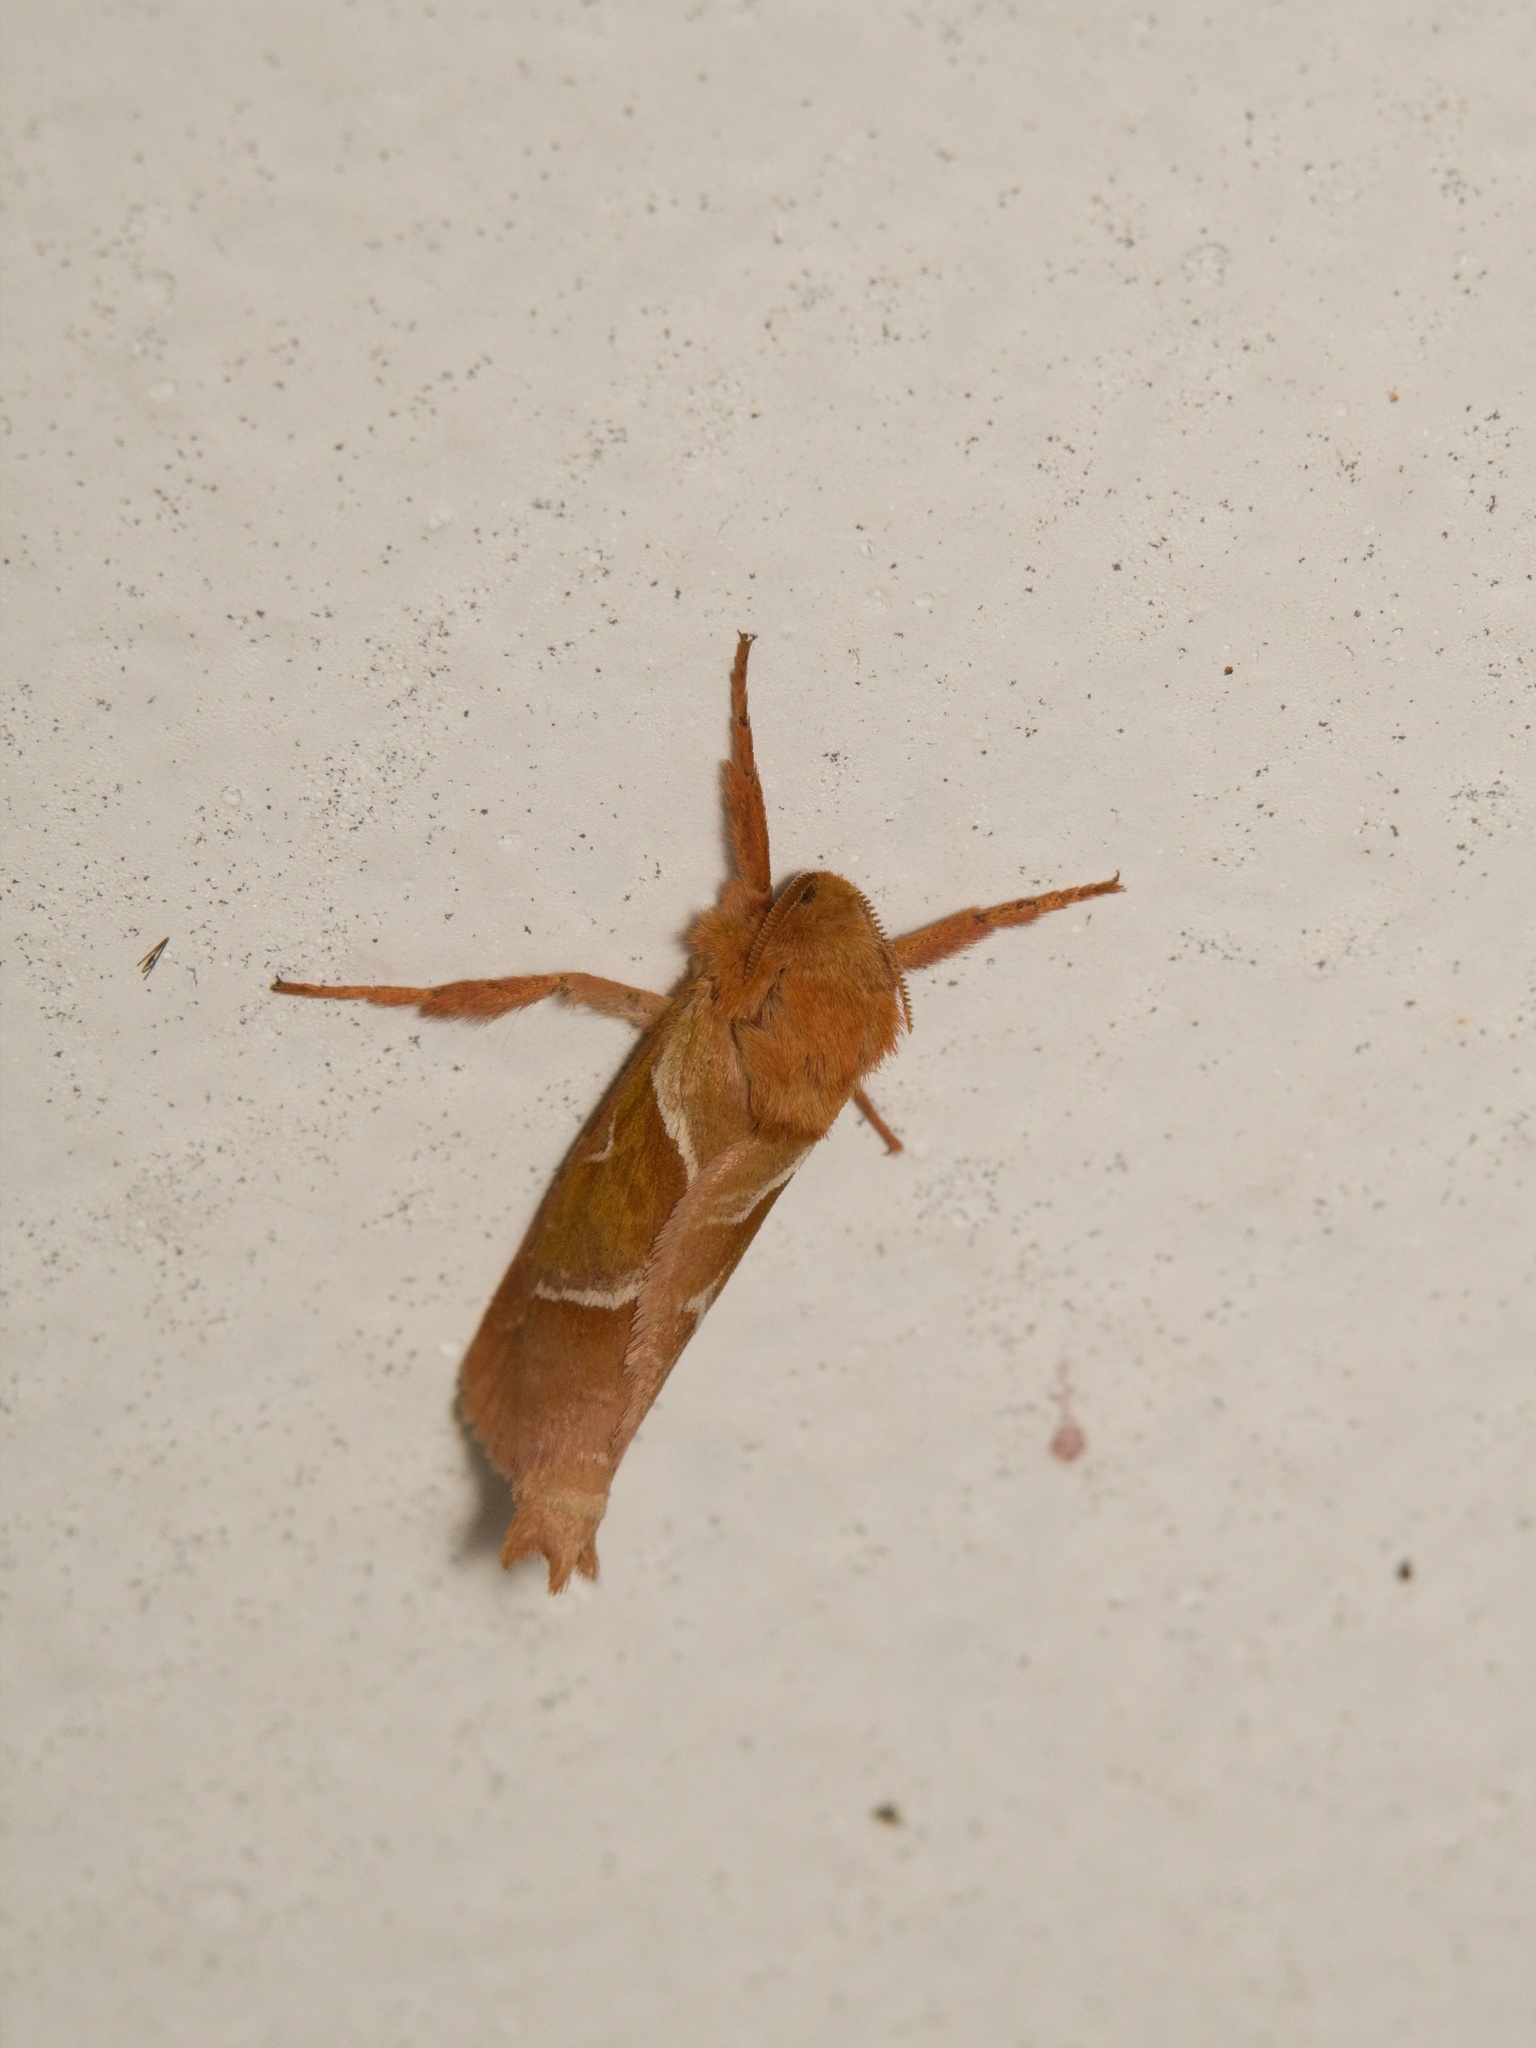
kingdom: Animalia
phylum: Arthropoda
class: Insecta
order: Lepidoptera
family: Hepialidae
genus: Triodia
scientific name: Triodia sylvina
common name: Orange swift
